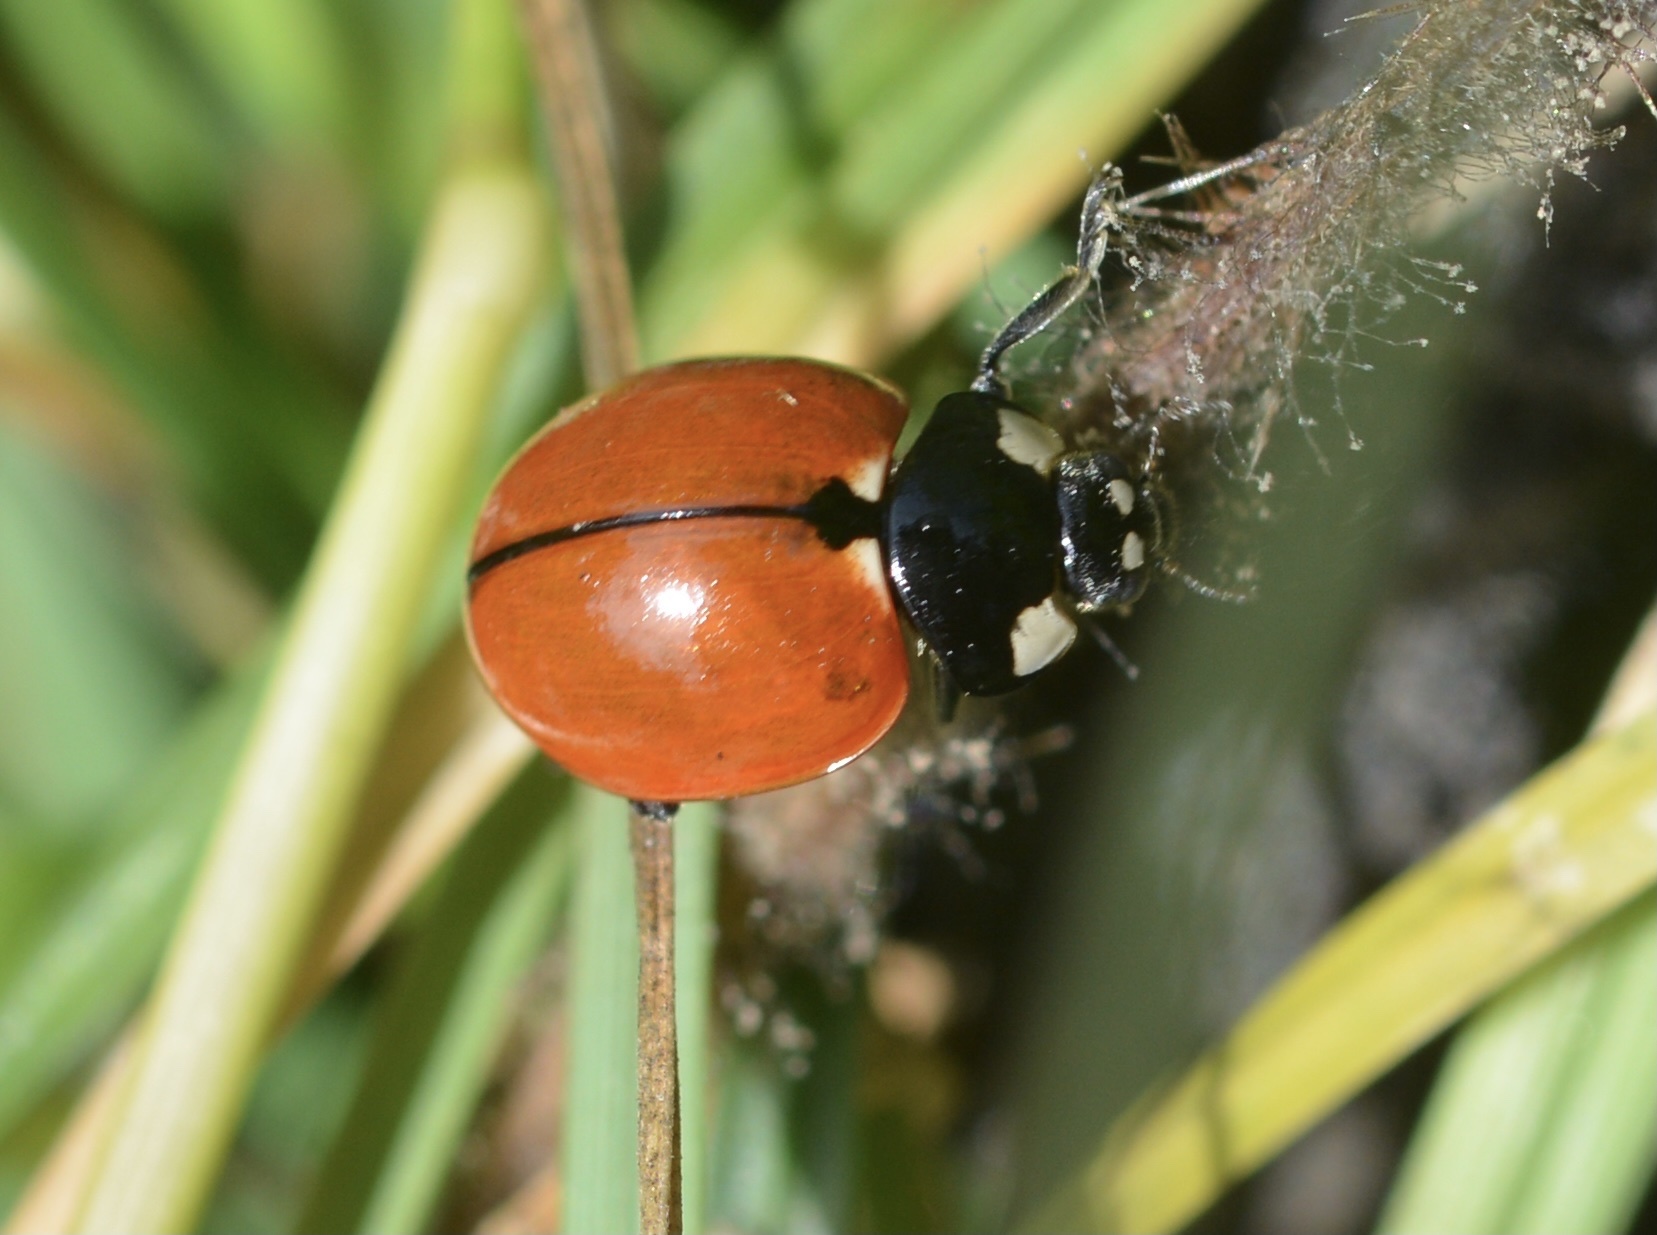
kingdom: Animalia
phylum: Arthropoda
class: Insecta
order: Coleoptera
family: Coccinellidae
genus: Coccinella
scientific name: Coccinella californica
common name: Lady beetle
